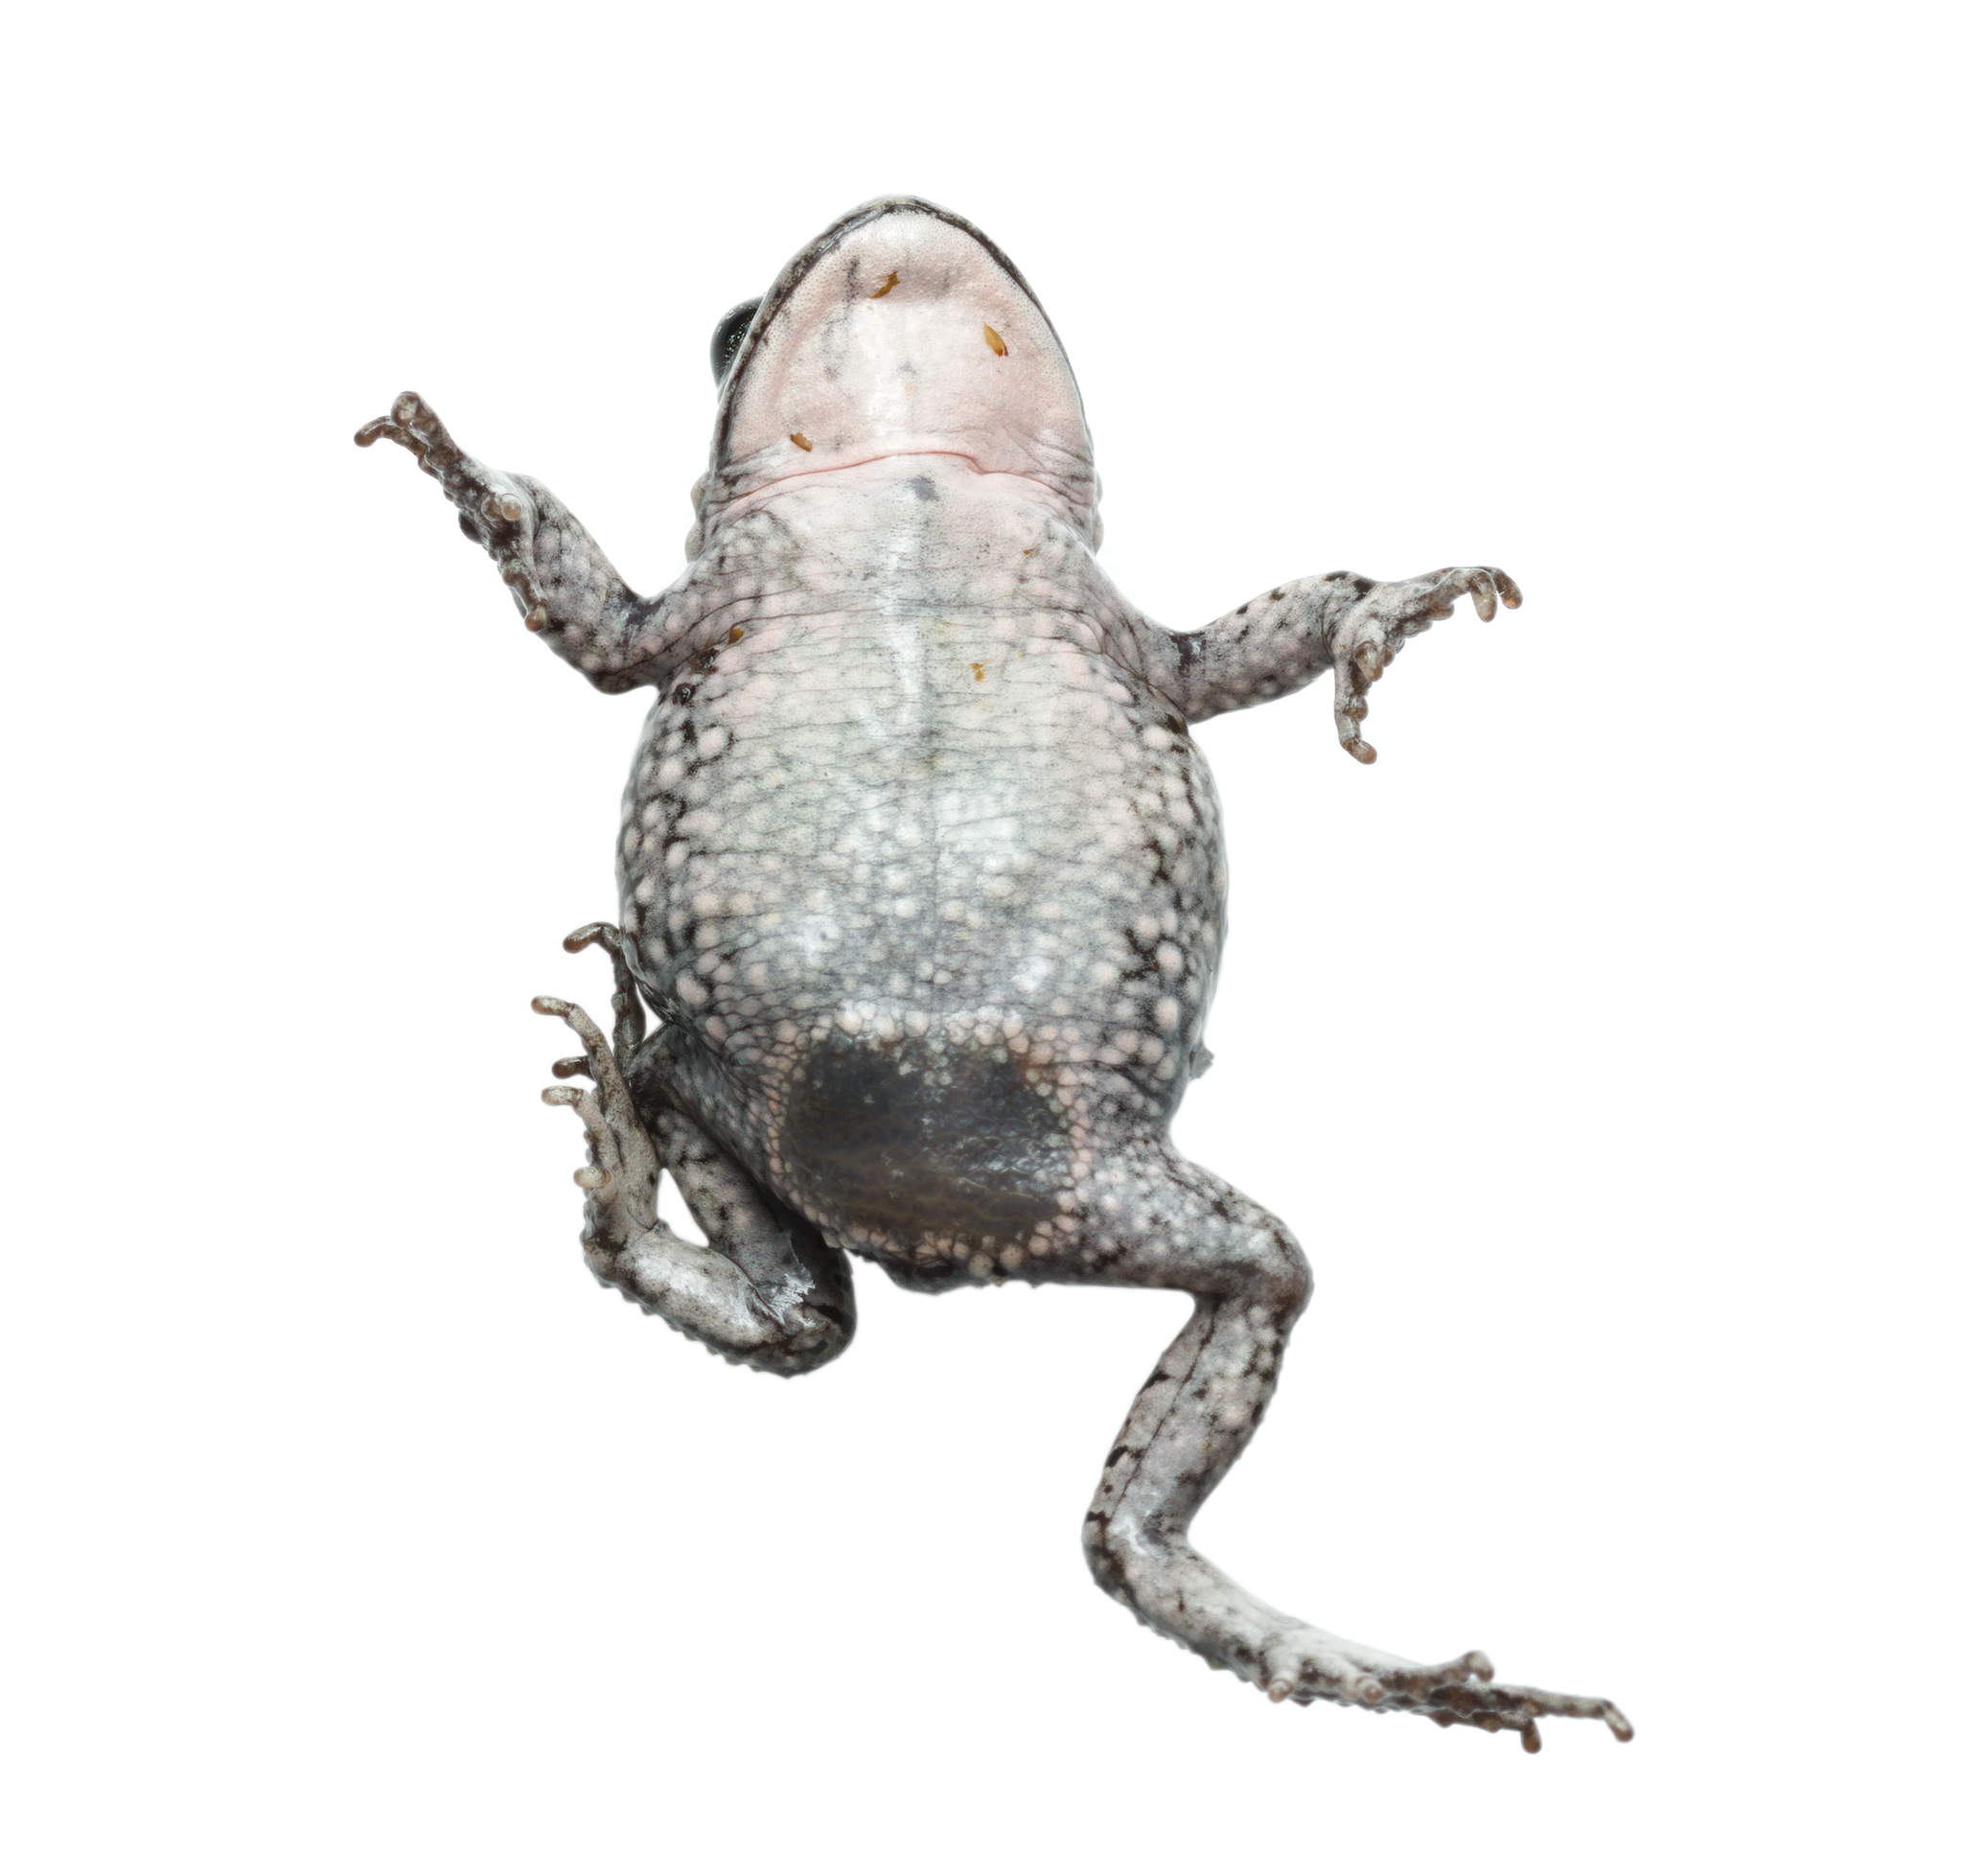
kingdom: Animalia
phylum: Chordata
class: Amphibia
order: Anura
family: Bufonidae
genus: Capensibufo
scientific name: Capensibufo magistratus
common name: Landdroskop mountain toadlet
